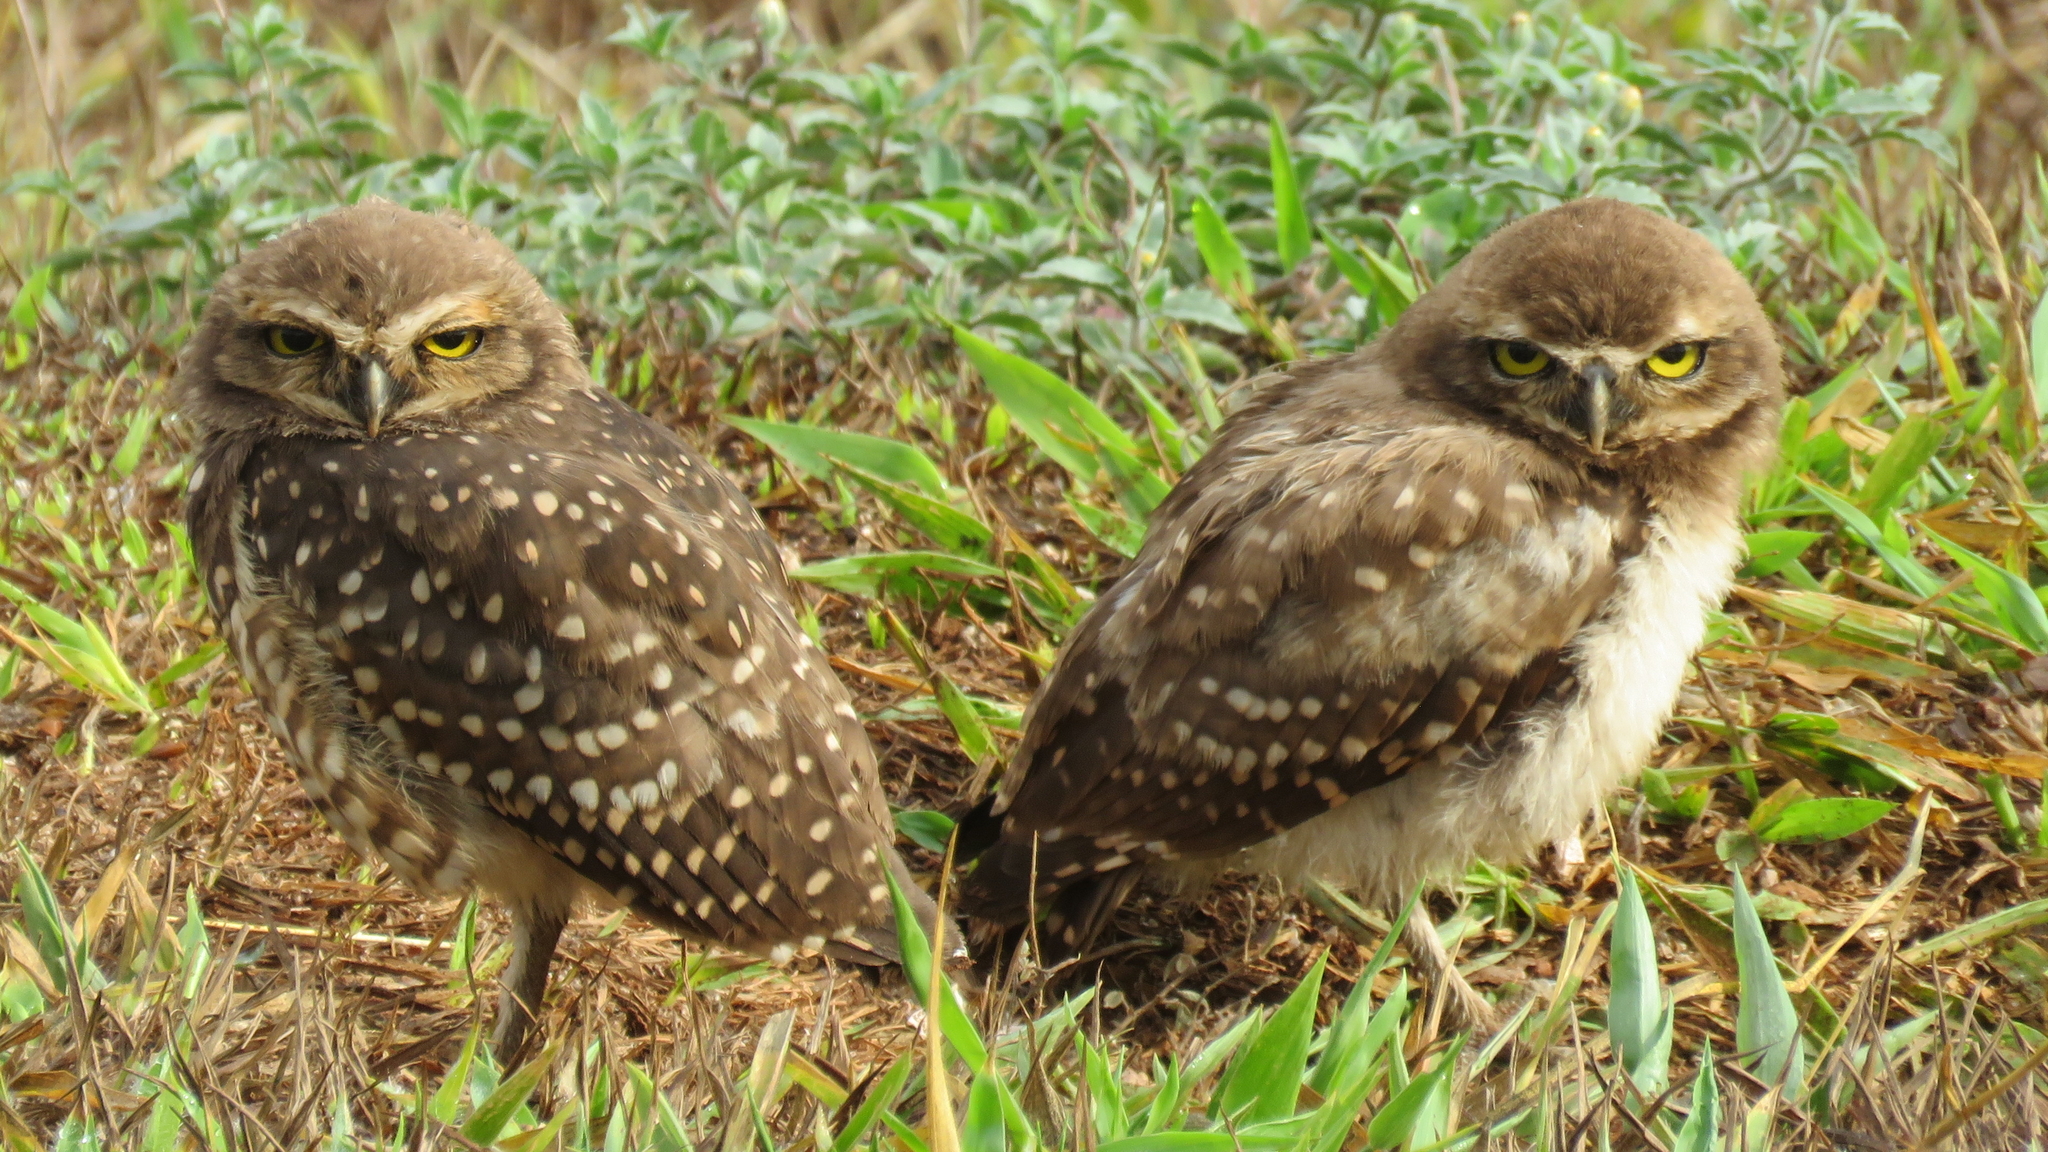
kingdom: Animalia
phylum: Chordata
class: Aves
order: Strigiformes
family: Strigidae
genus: Athene
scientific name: Athene cunicularia
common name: Burrowing owl
